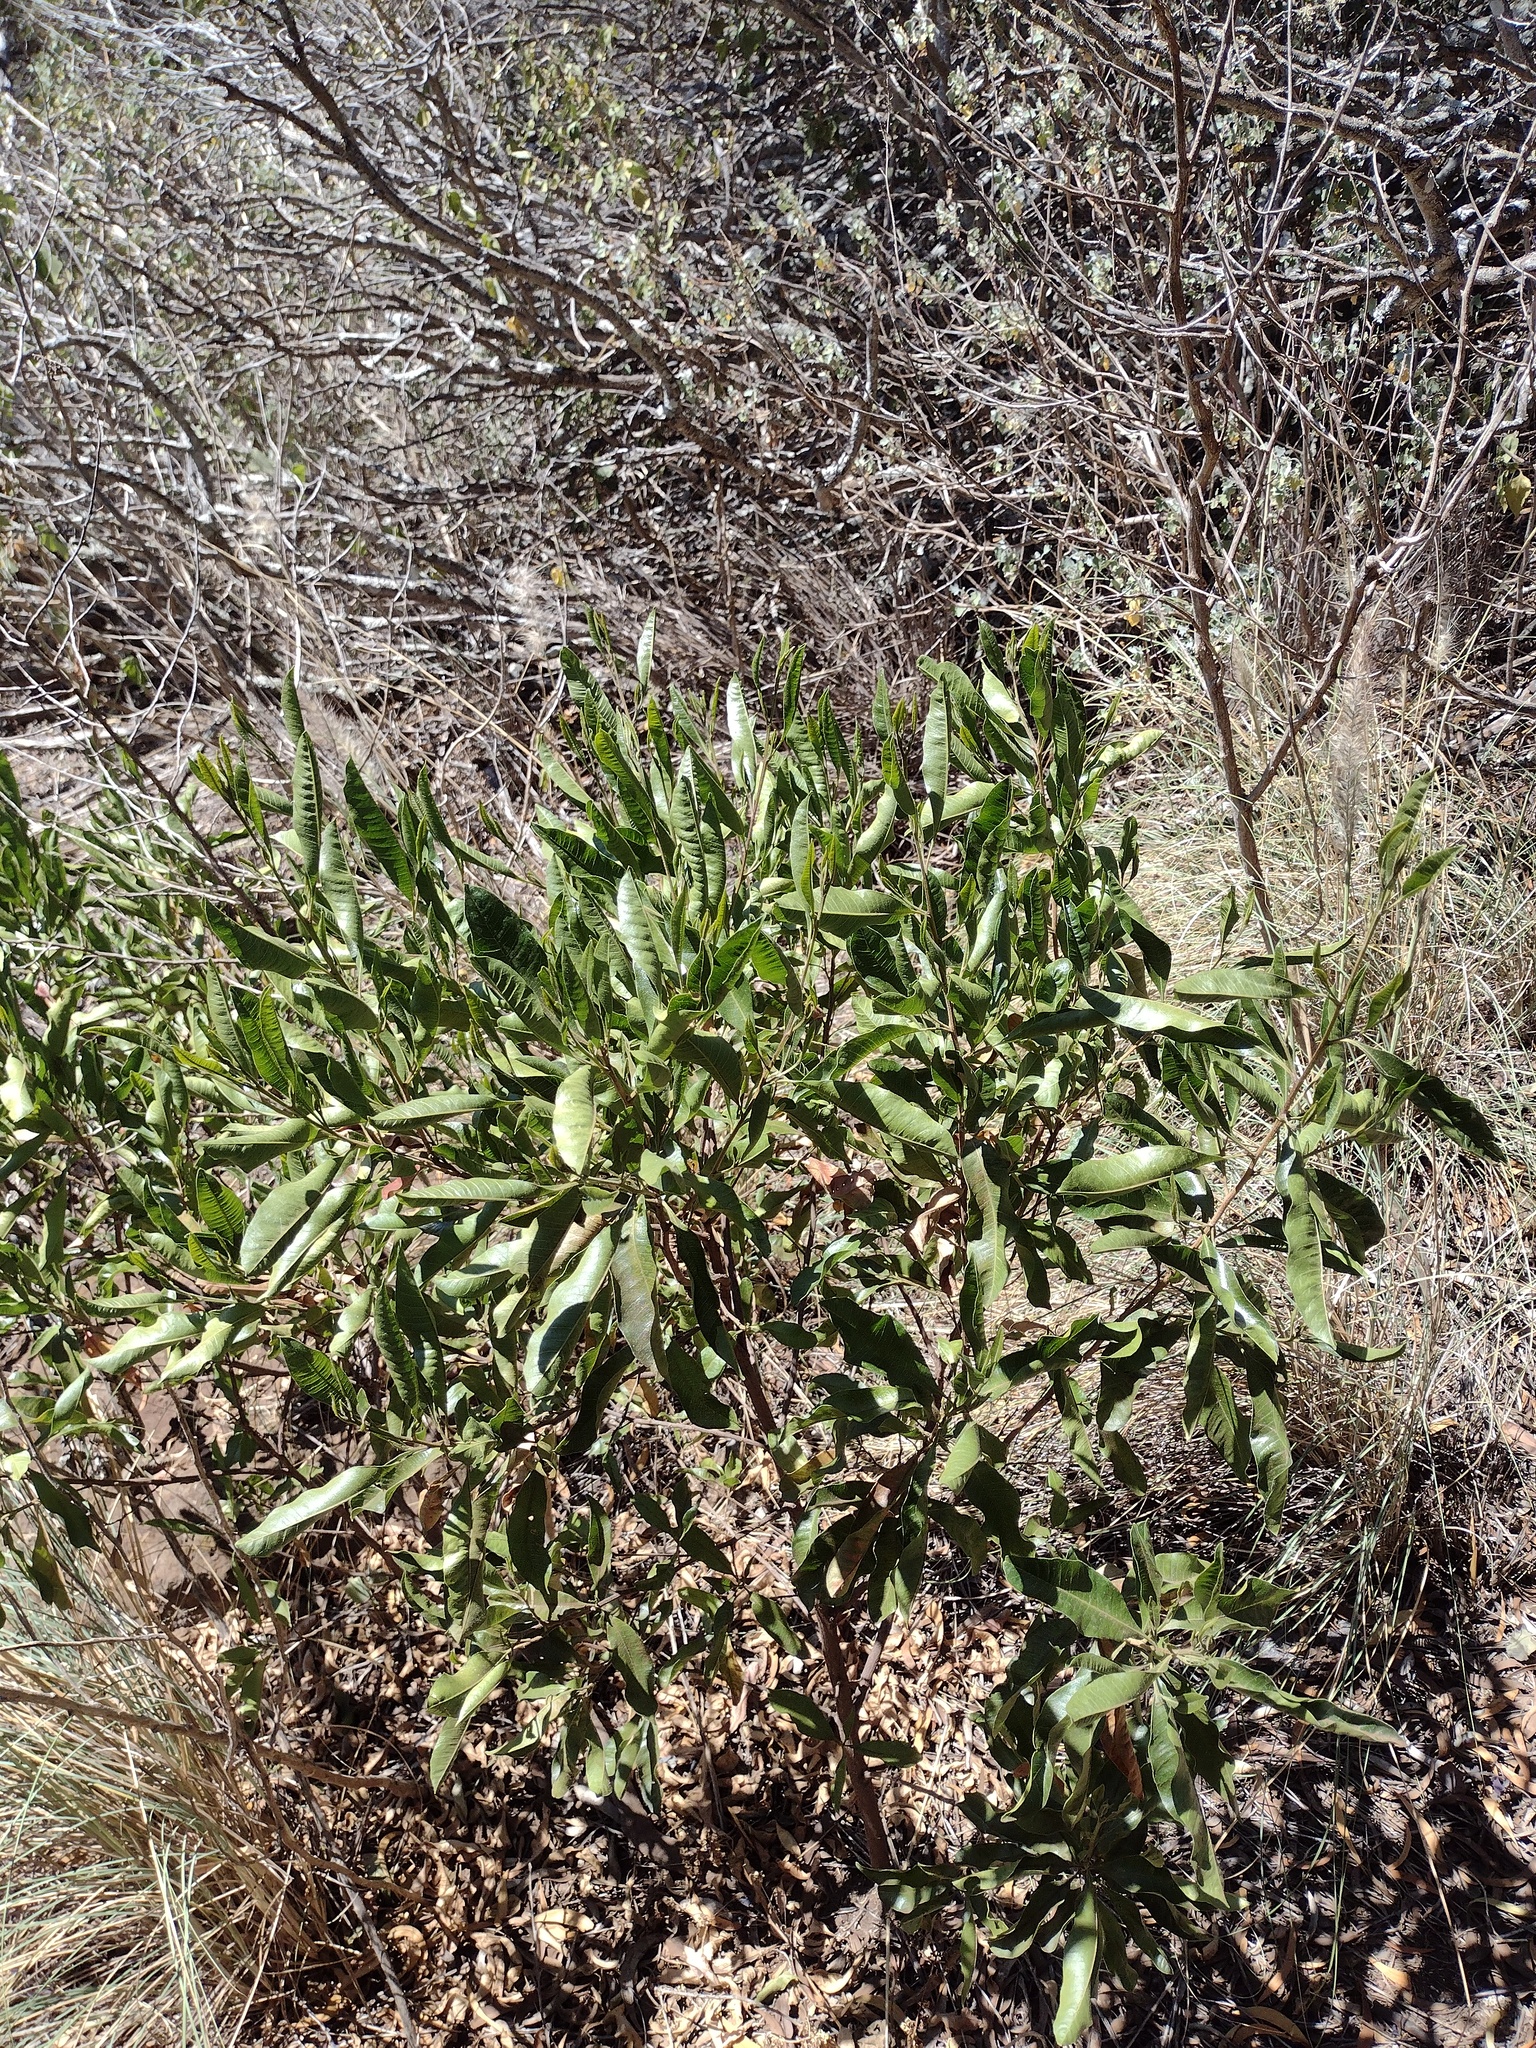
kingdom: Plantae
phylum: Tracheophyta
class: Magnoliopsida
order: Sapindales
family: Sapindaceae
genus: Dodonaea
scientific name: Dodonaea viscosa
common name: Hopbush
